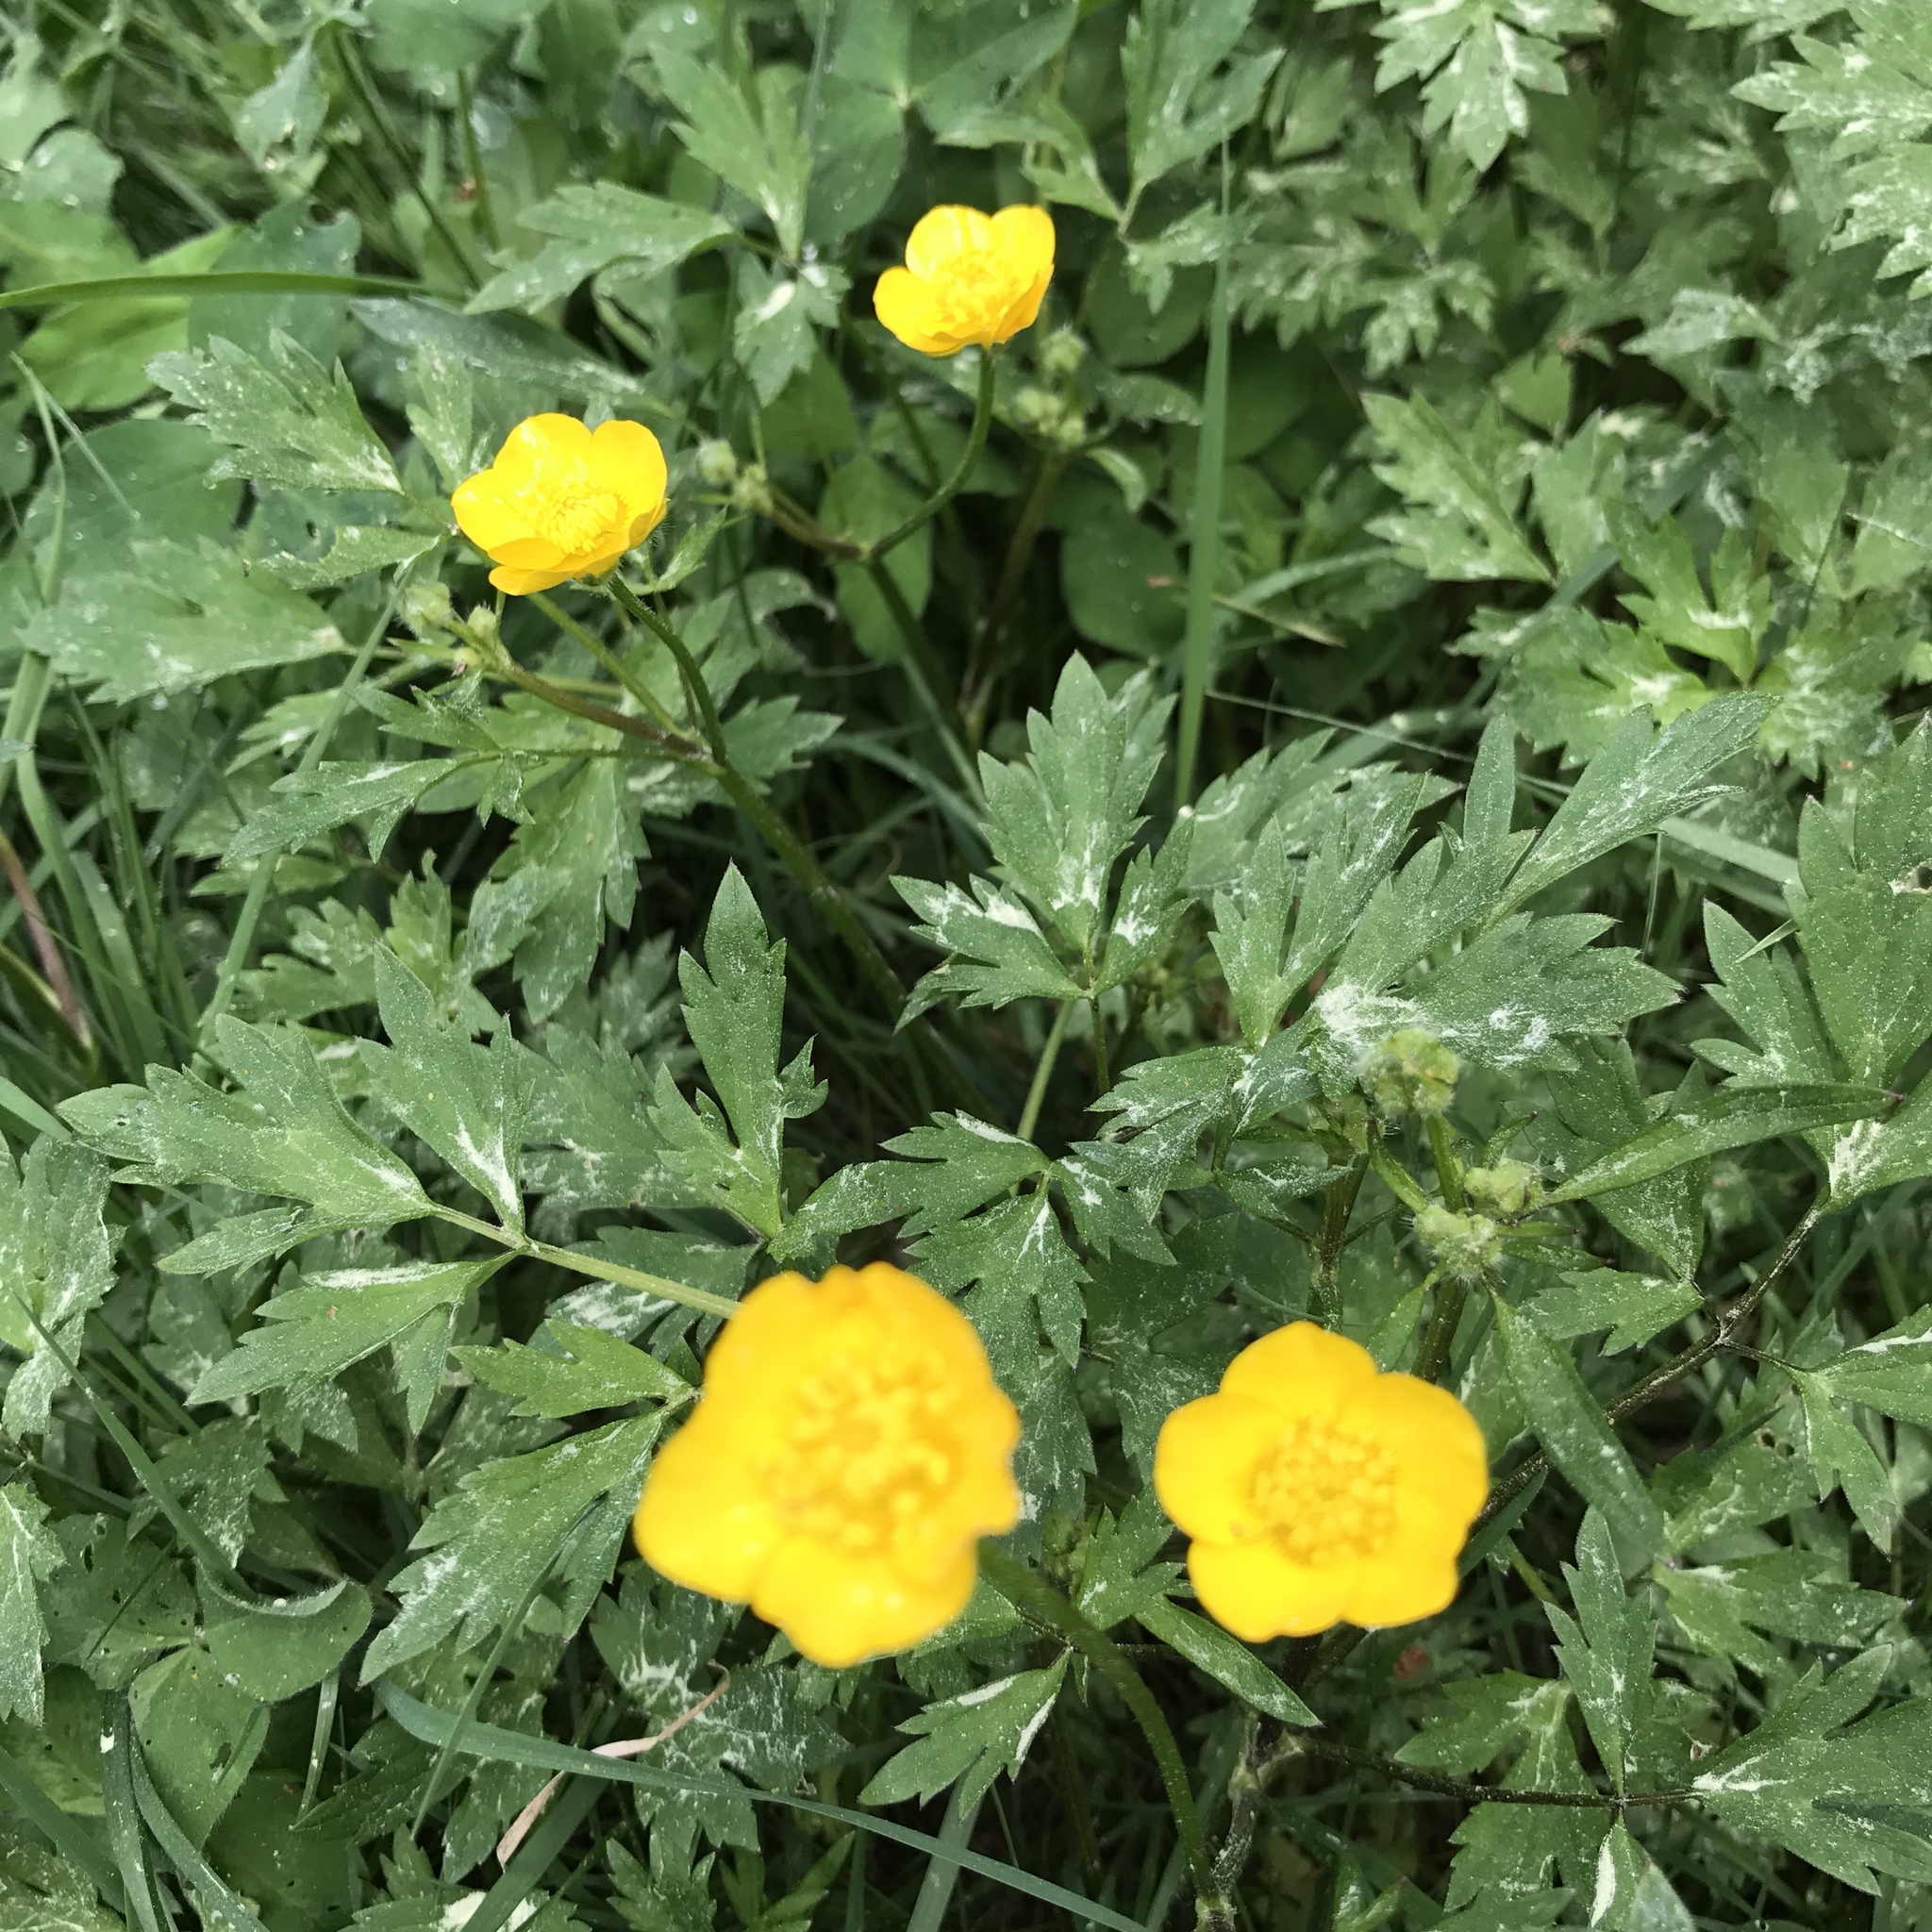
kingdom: Plantae
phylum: Tracheophyta
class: Magnoliopsida
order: Ranunculales
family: Ranunculaceae
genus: Ranunculus
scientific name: Ranunculus acris
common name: Meadow buttercup
